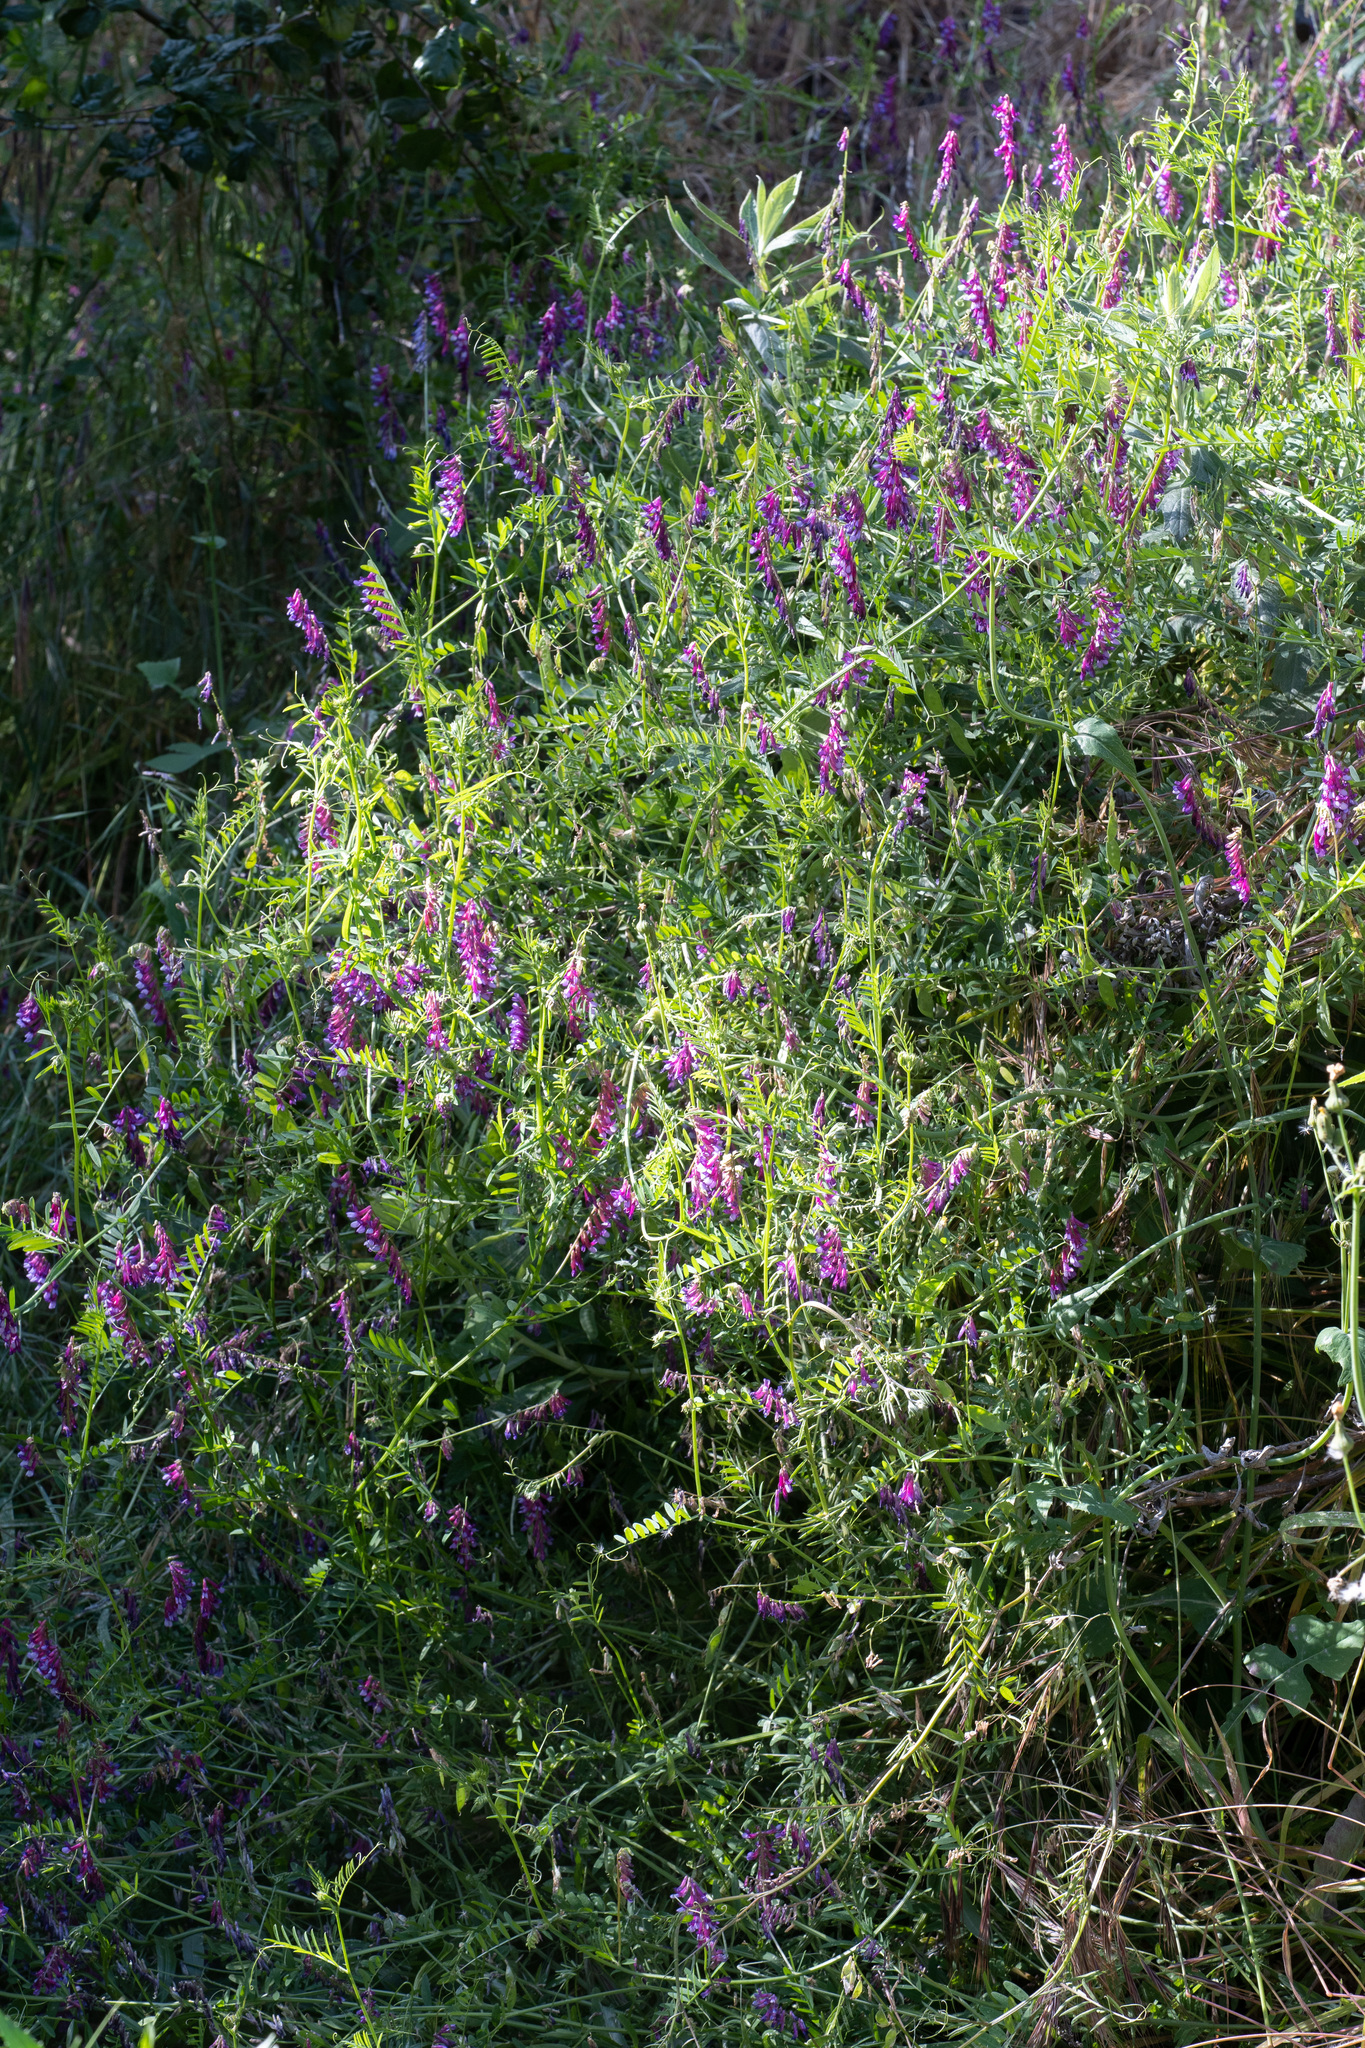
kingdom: Plantae
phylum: Tracheophyta
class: Magnoliopsida
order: Fabales
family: Fabaceae
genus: Vicia
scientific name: Vicia villosa
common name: Fodder vetch
